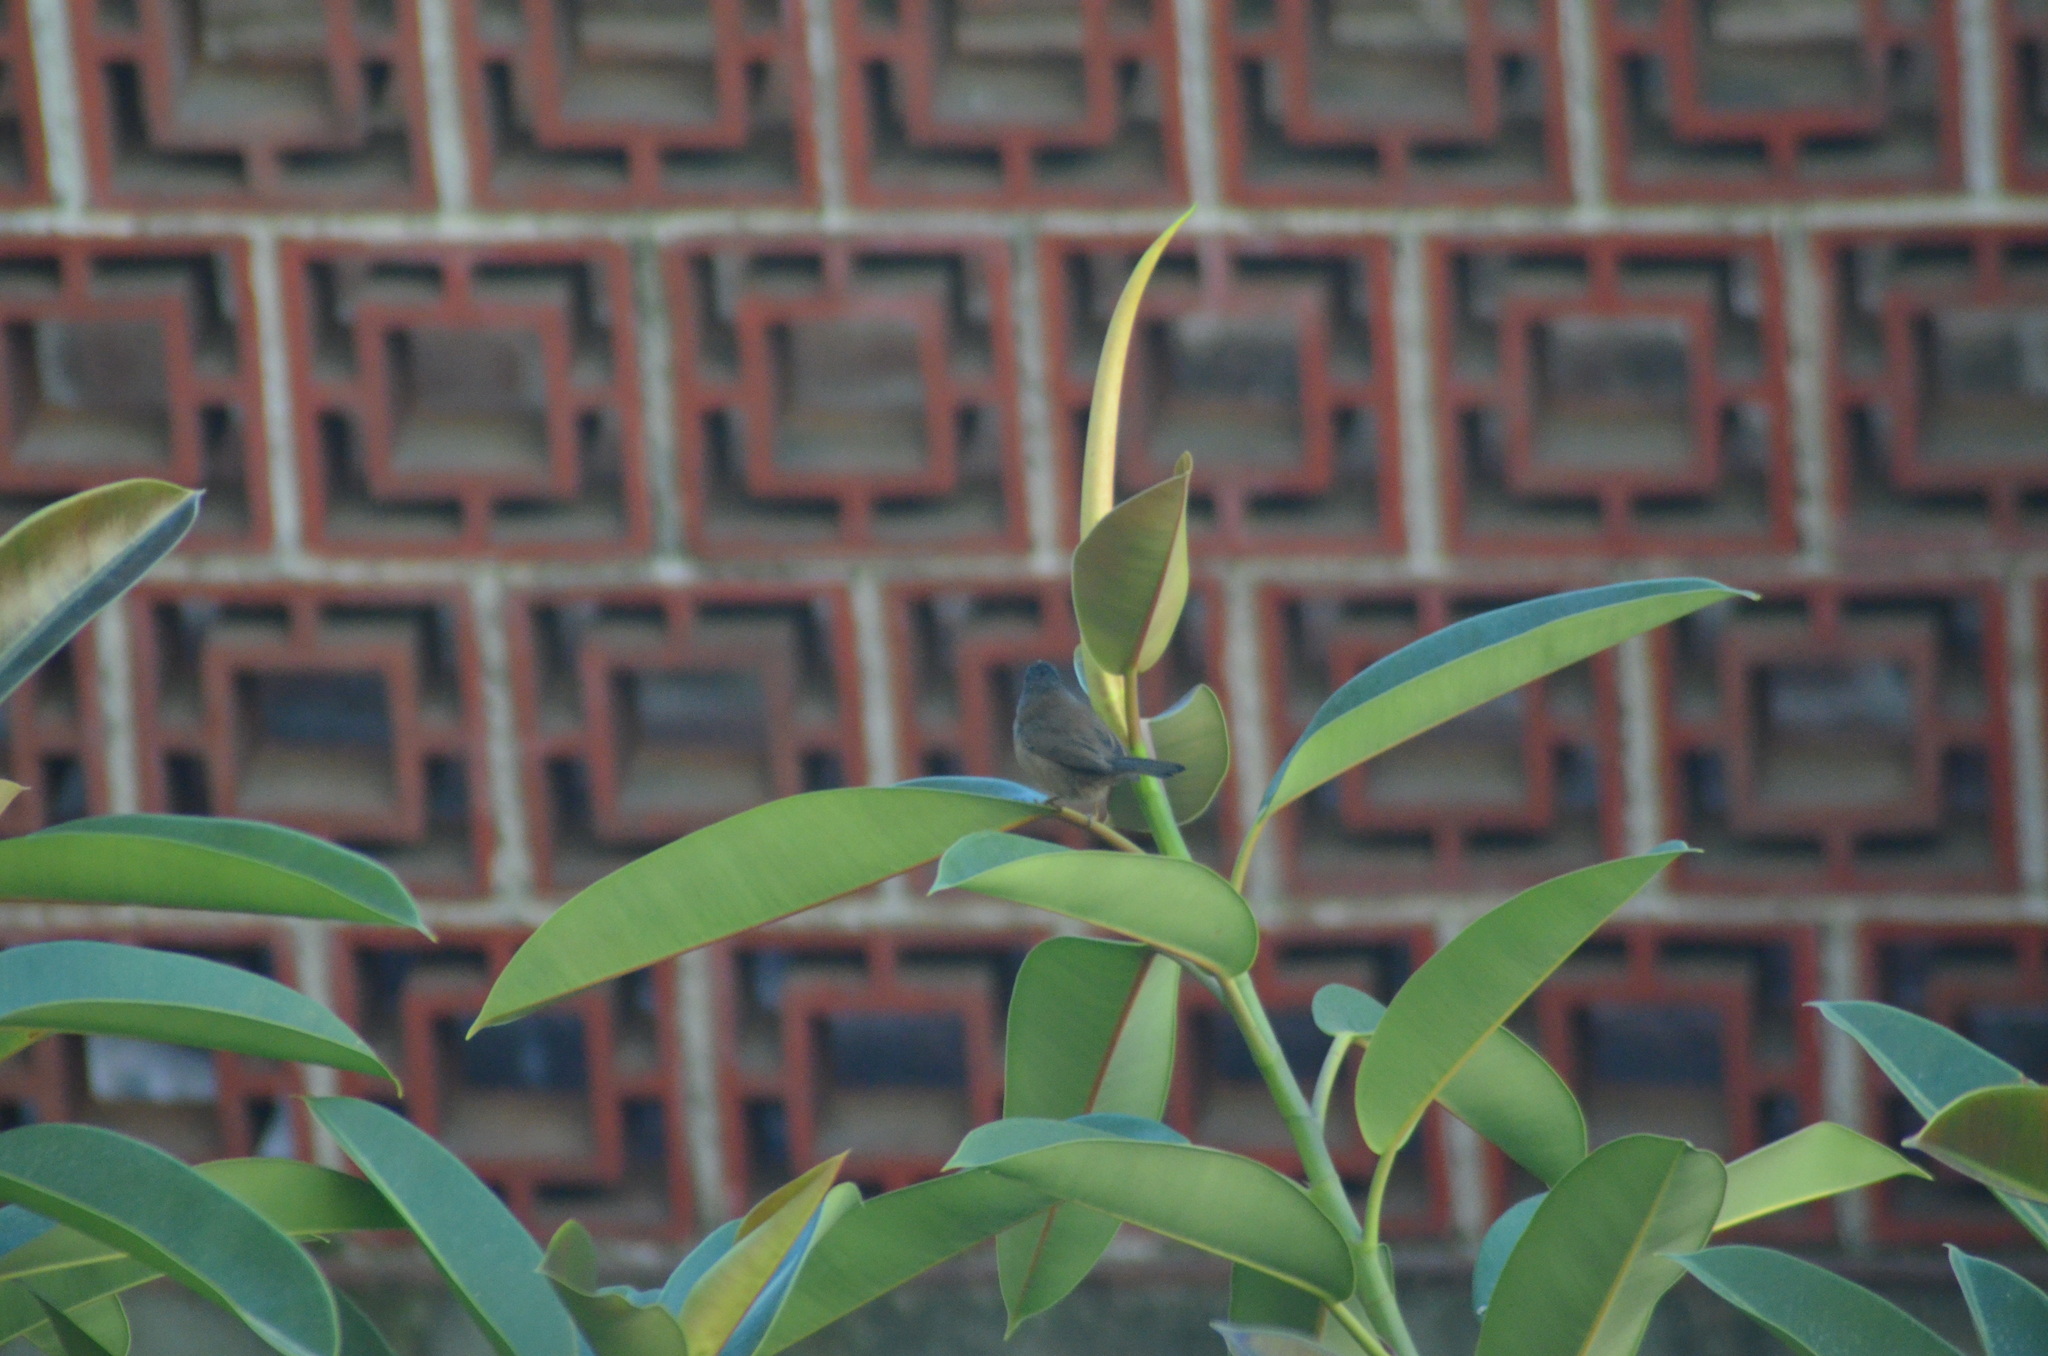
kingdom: Animalia
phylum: Chordata
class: Aves
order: Passeriformes
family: Sylviidae
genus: Curruca
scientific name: Curruca melanocephala
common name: Sardinian warbler
